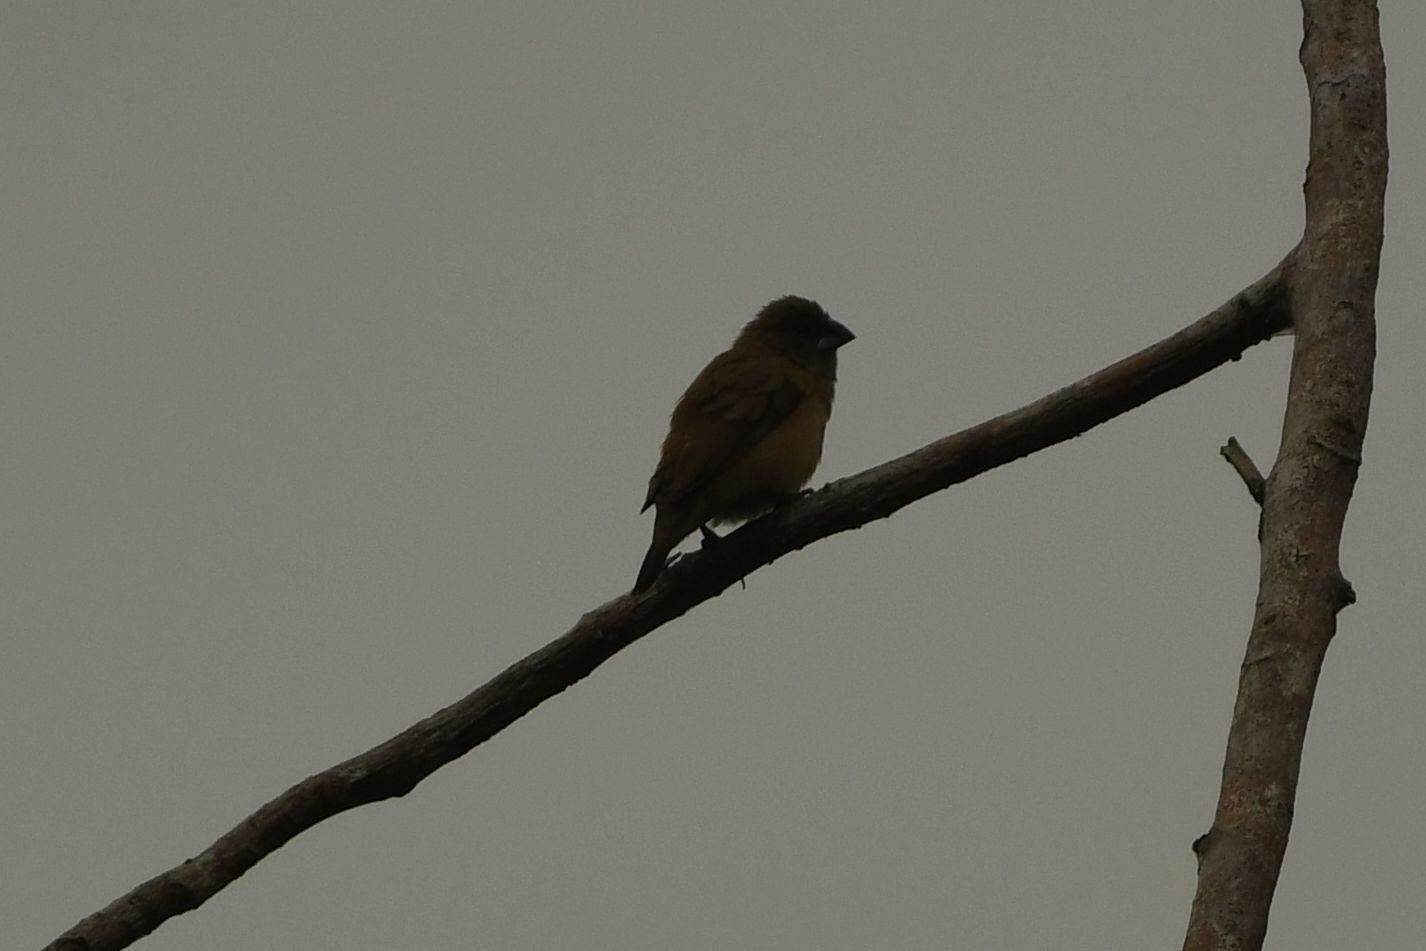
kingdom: Animalia
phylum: Chordata
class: Aves
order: Passeriformes
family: Estrildidae
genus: Lonchura
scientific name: Lonchura cucullata
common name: Bronze mannikin
